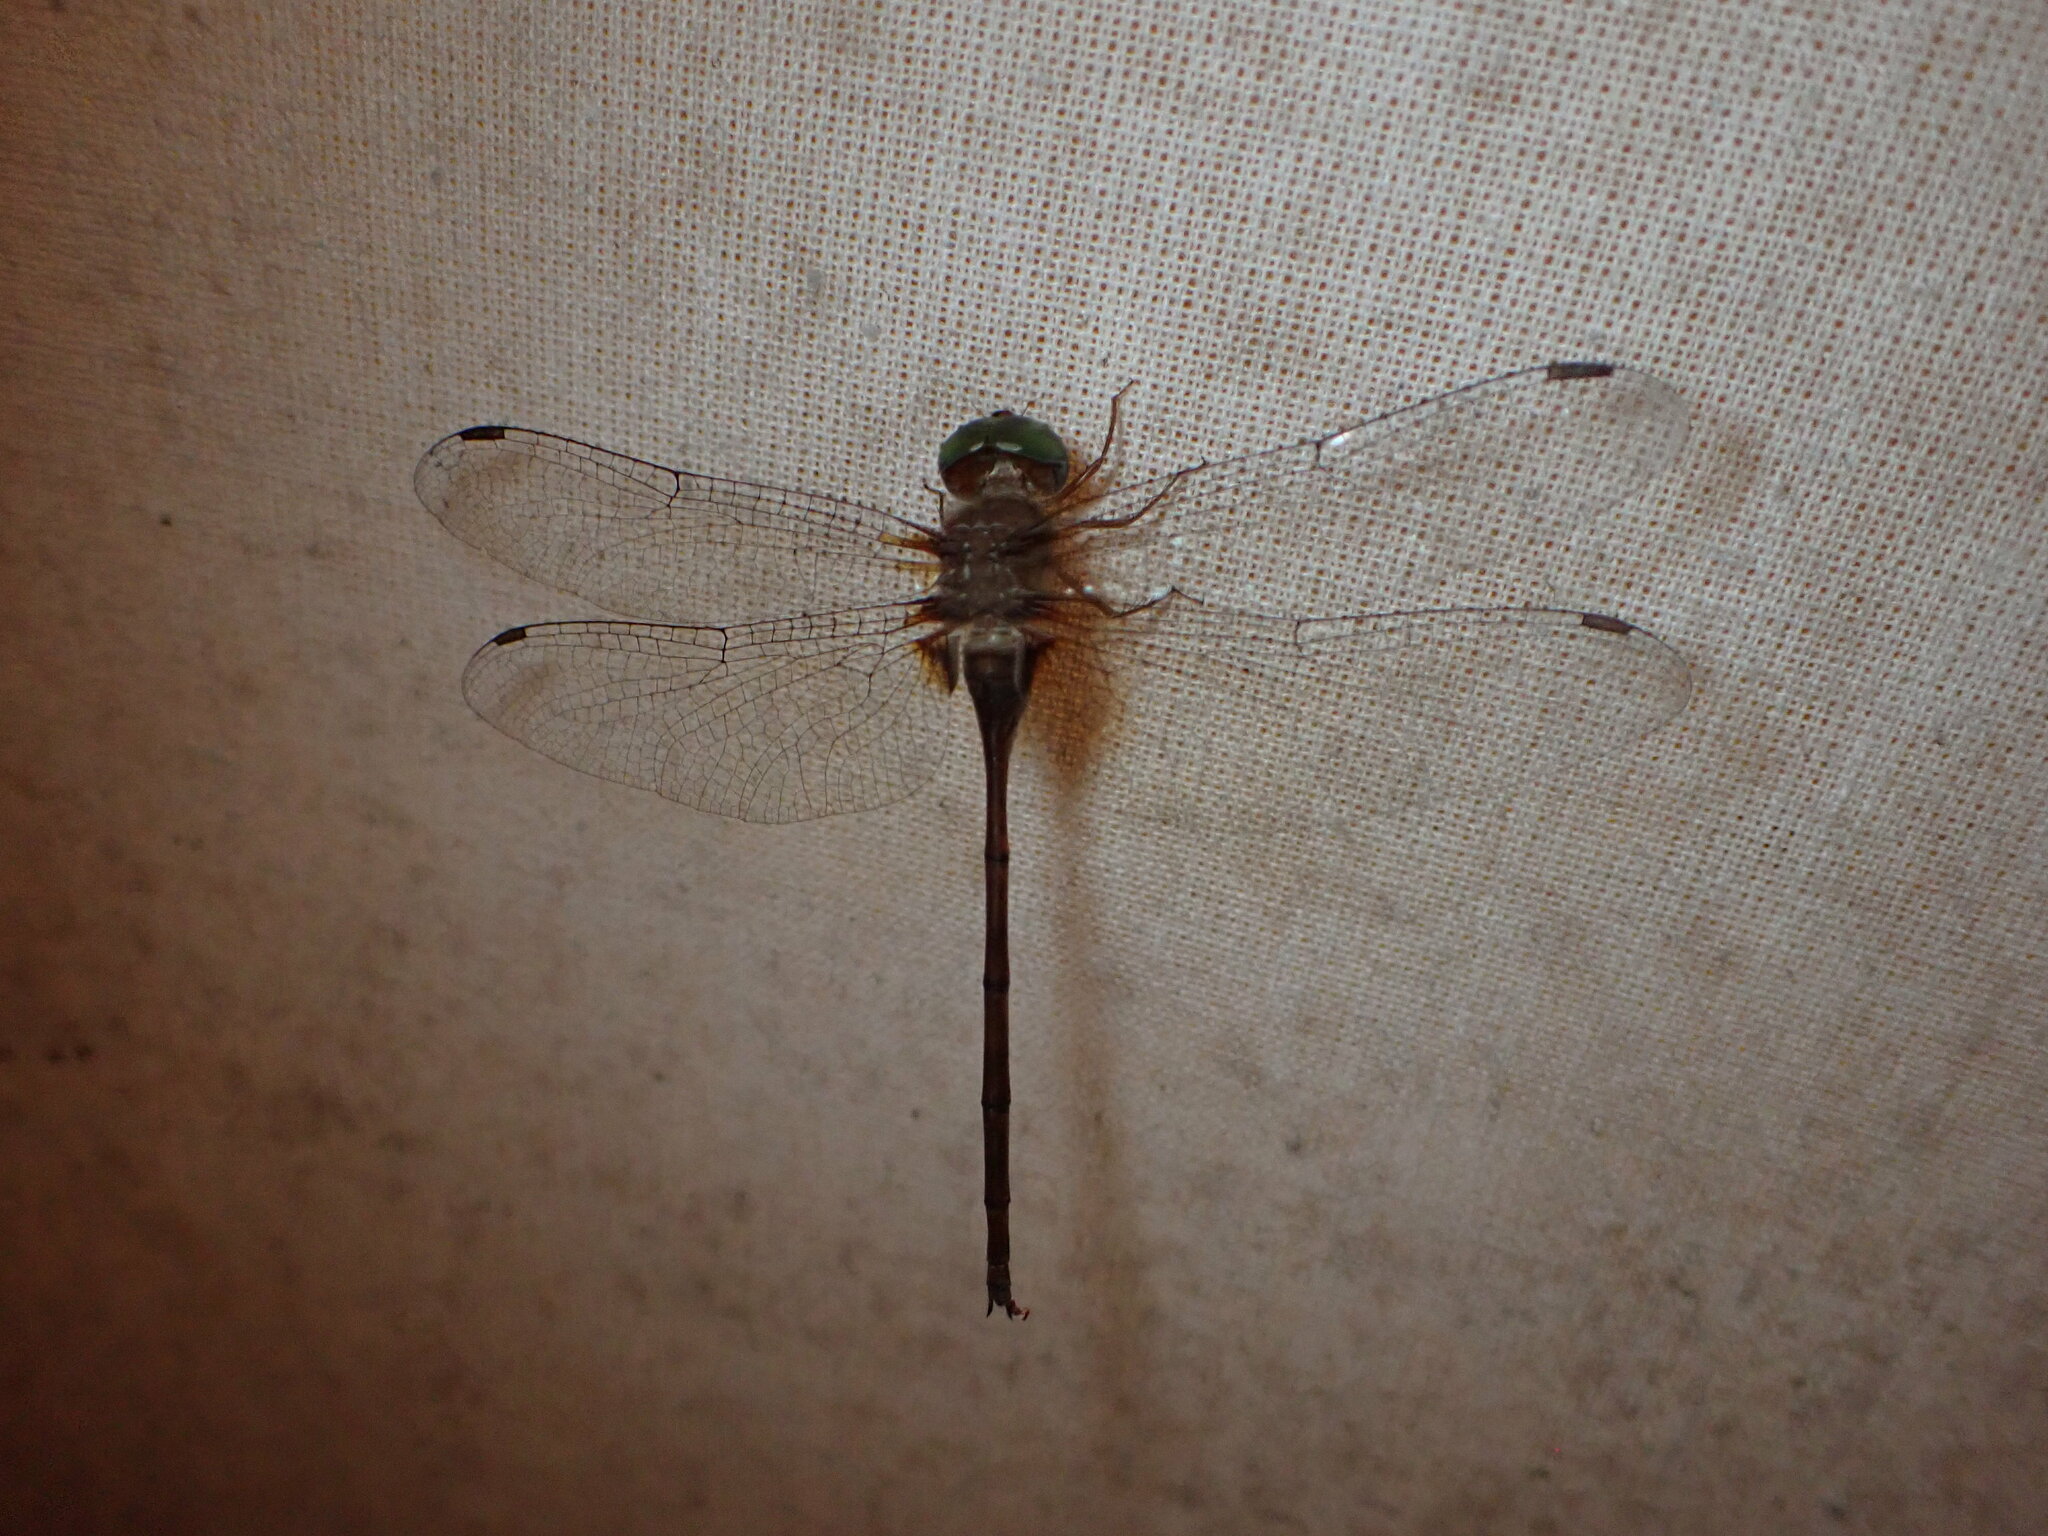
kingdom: Animalia
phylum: Arthropoda
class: Insecta
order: Odonata
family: Libellulidae
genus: Zyxomma
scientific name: Zyxomma petiolatum
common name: Dingy dusk-darter
